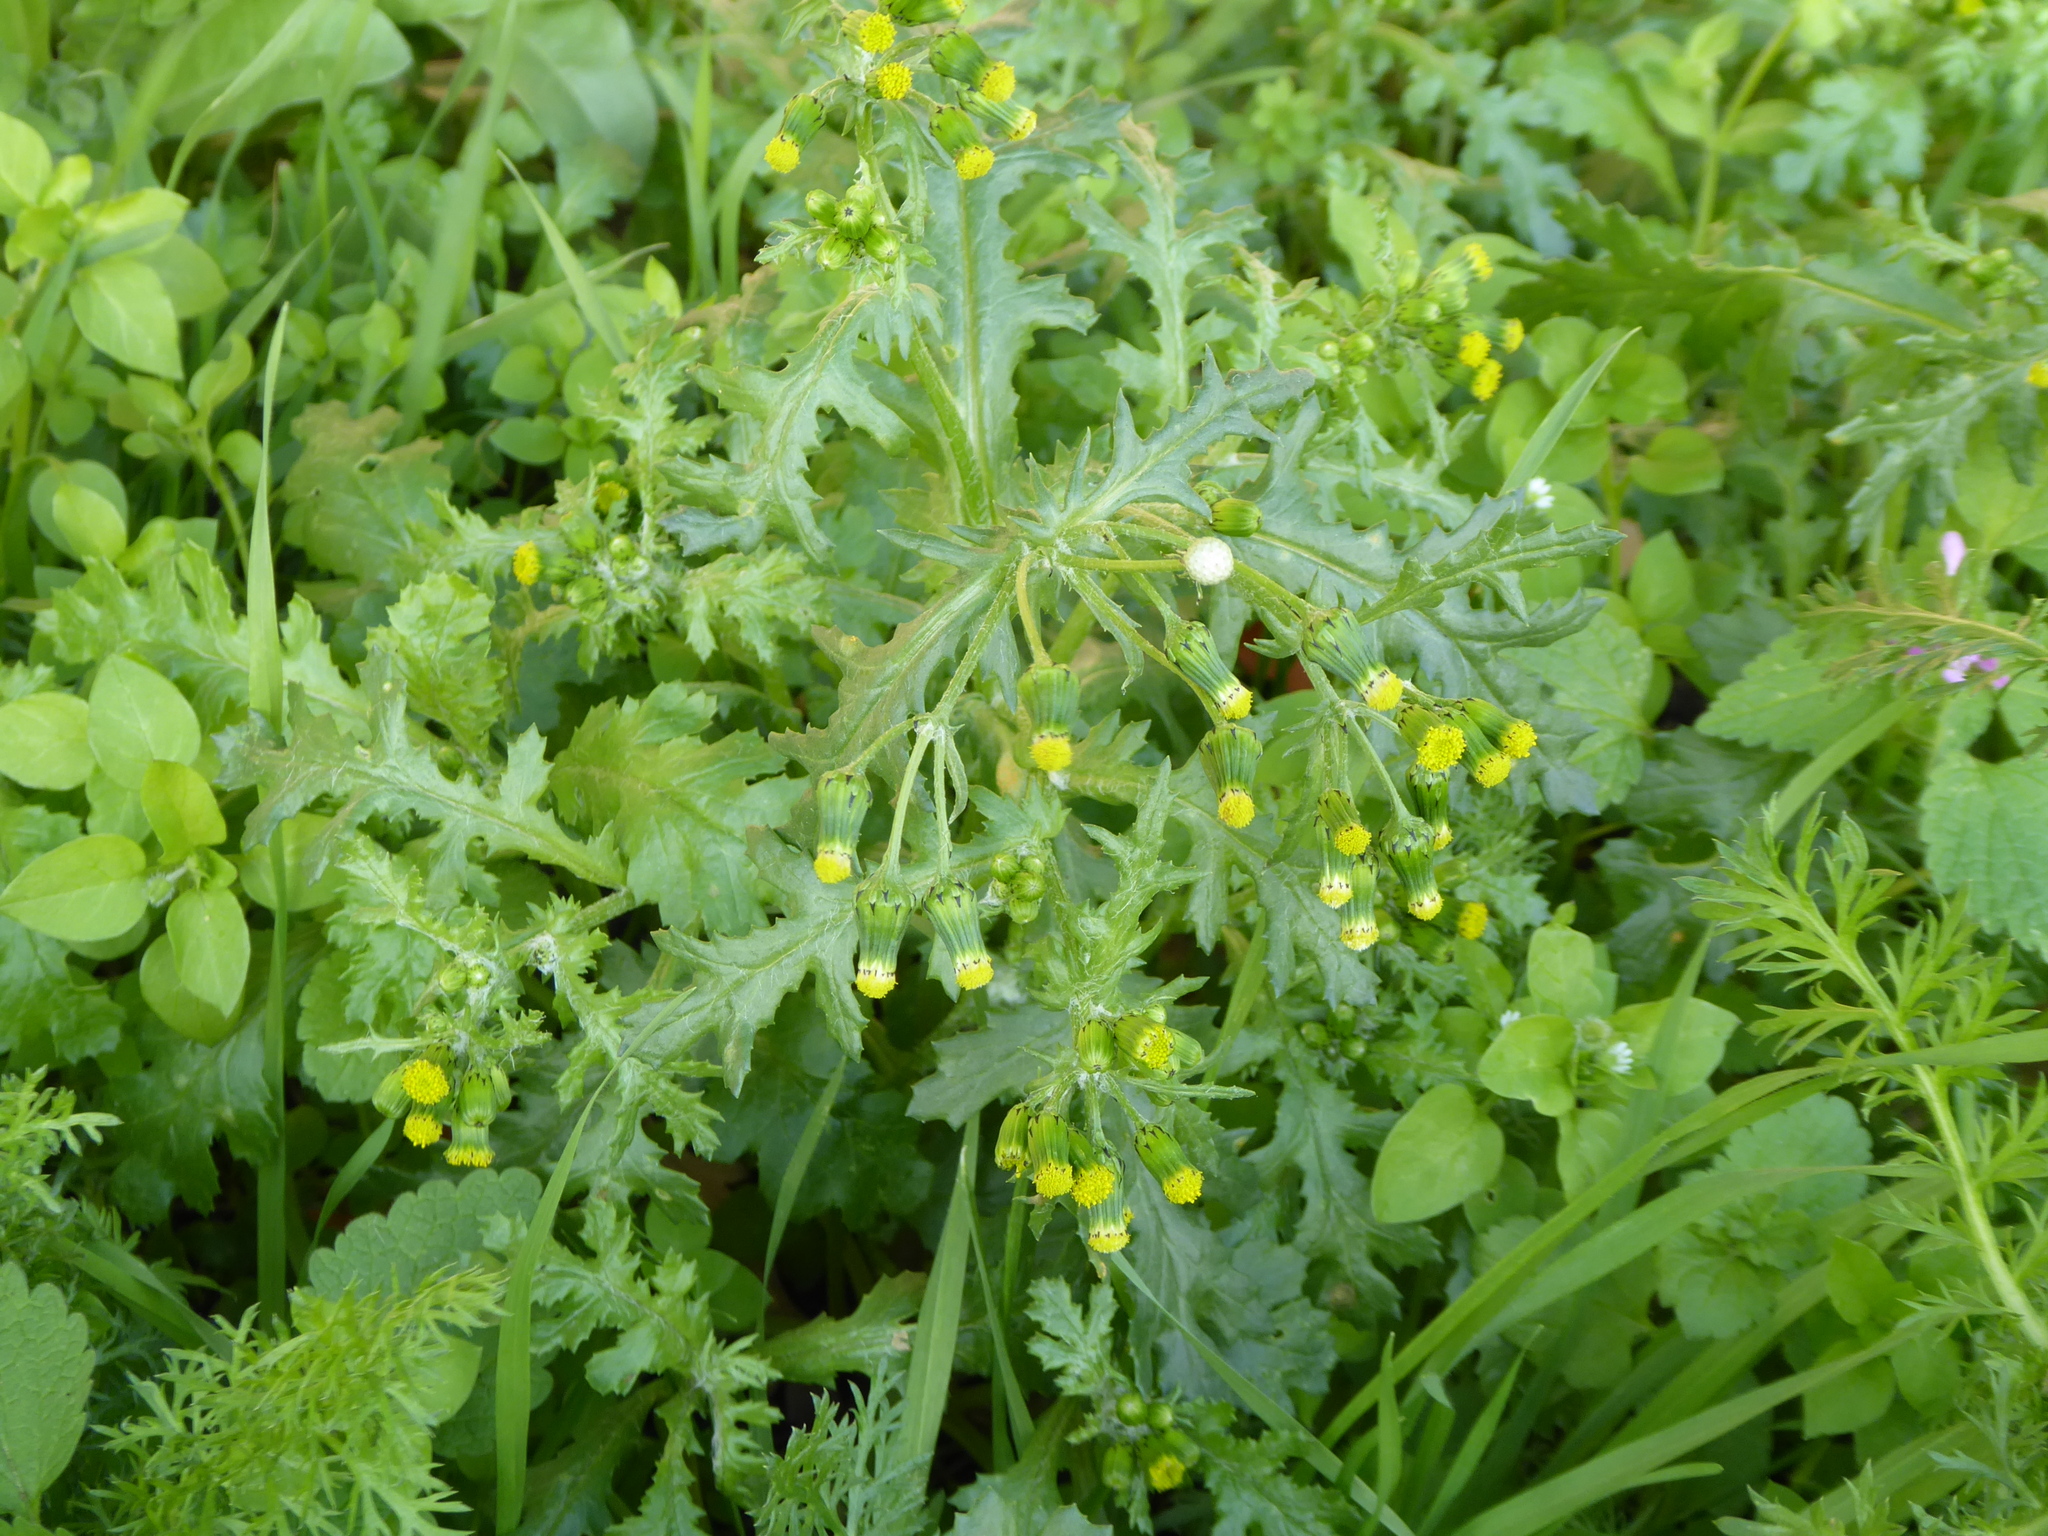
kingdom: Plantae
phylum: Tracheophyta
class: Magnoliopsida
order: Asterales
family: Asteraceae
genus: Senecio
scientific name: Senecio vulgaris
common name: Old-man-in-the-spring
